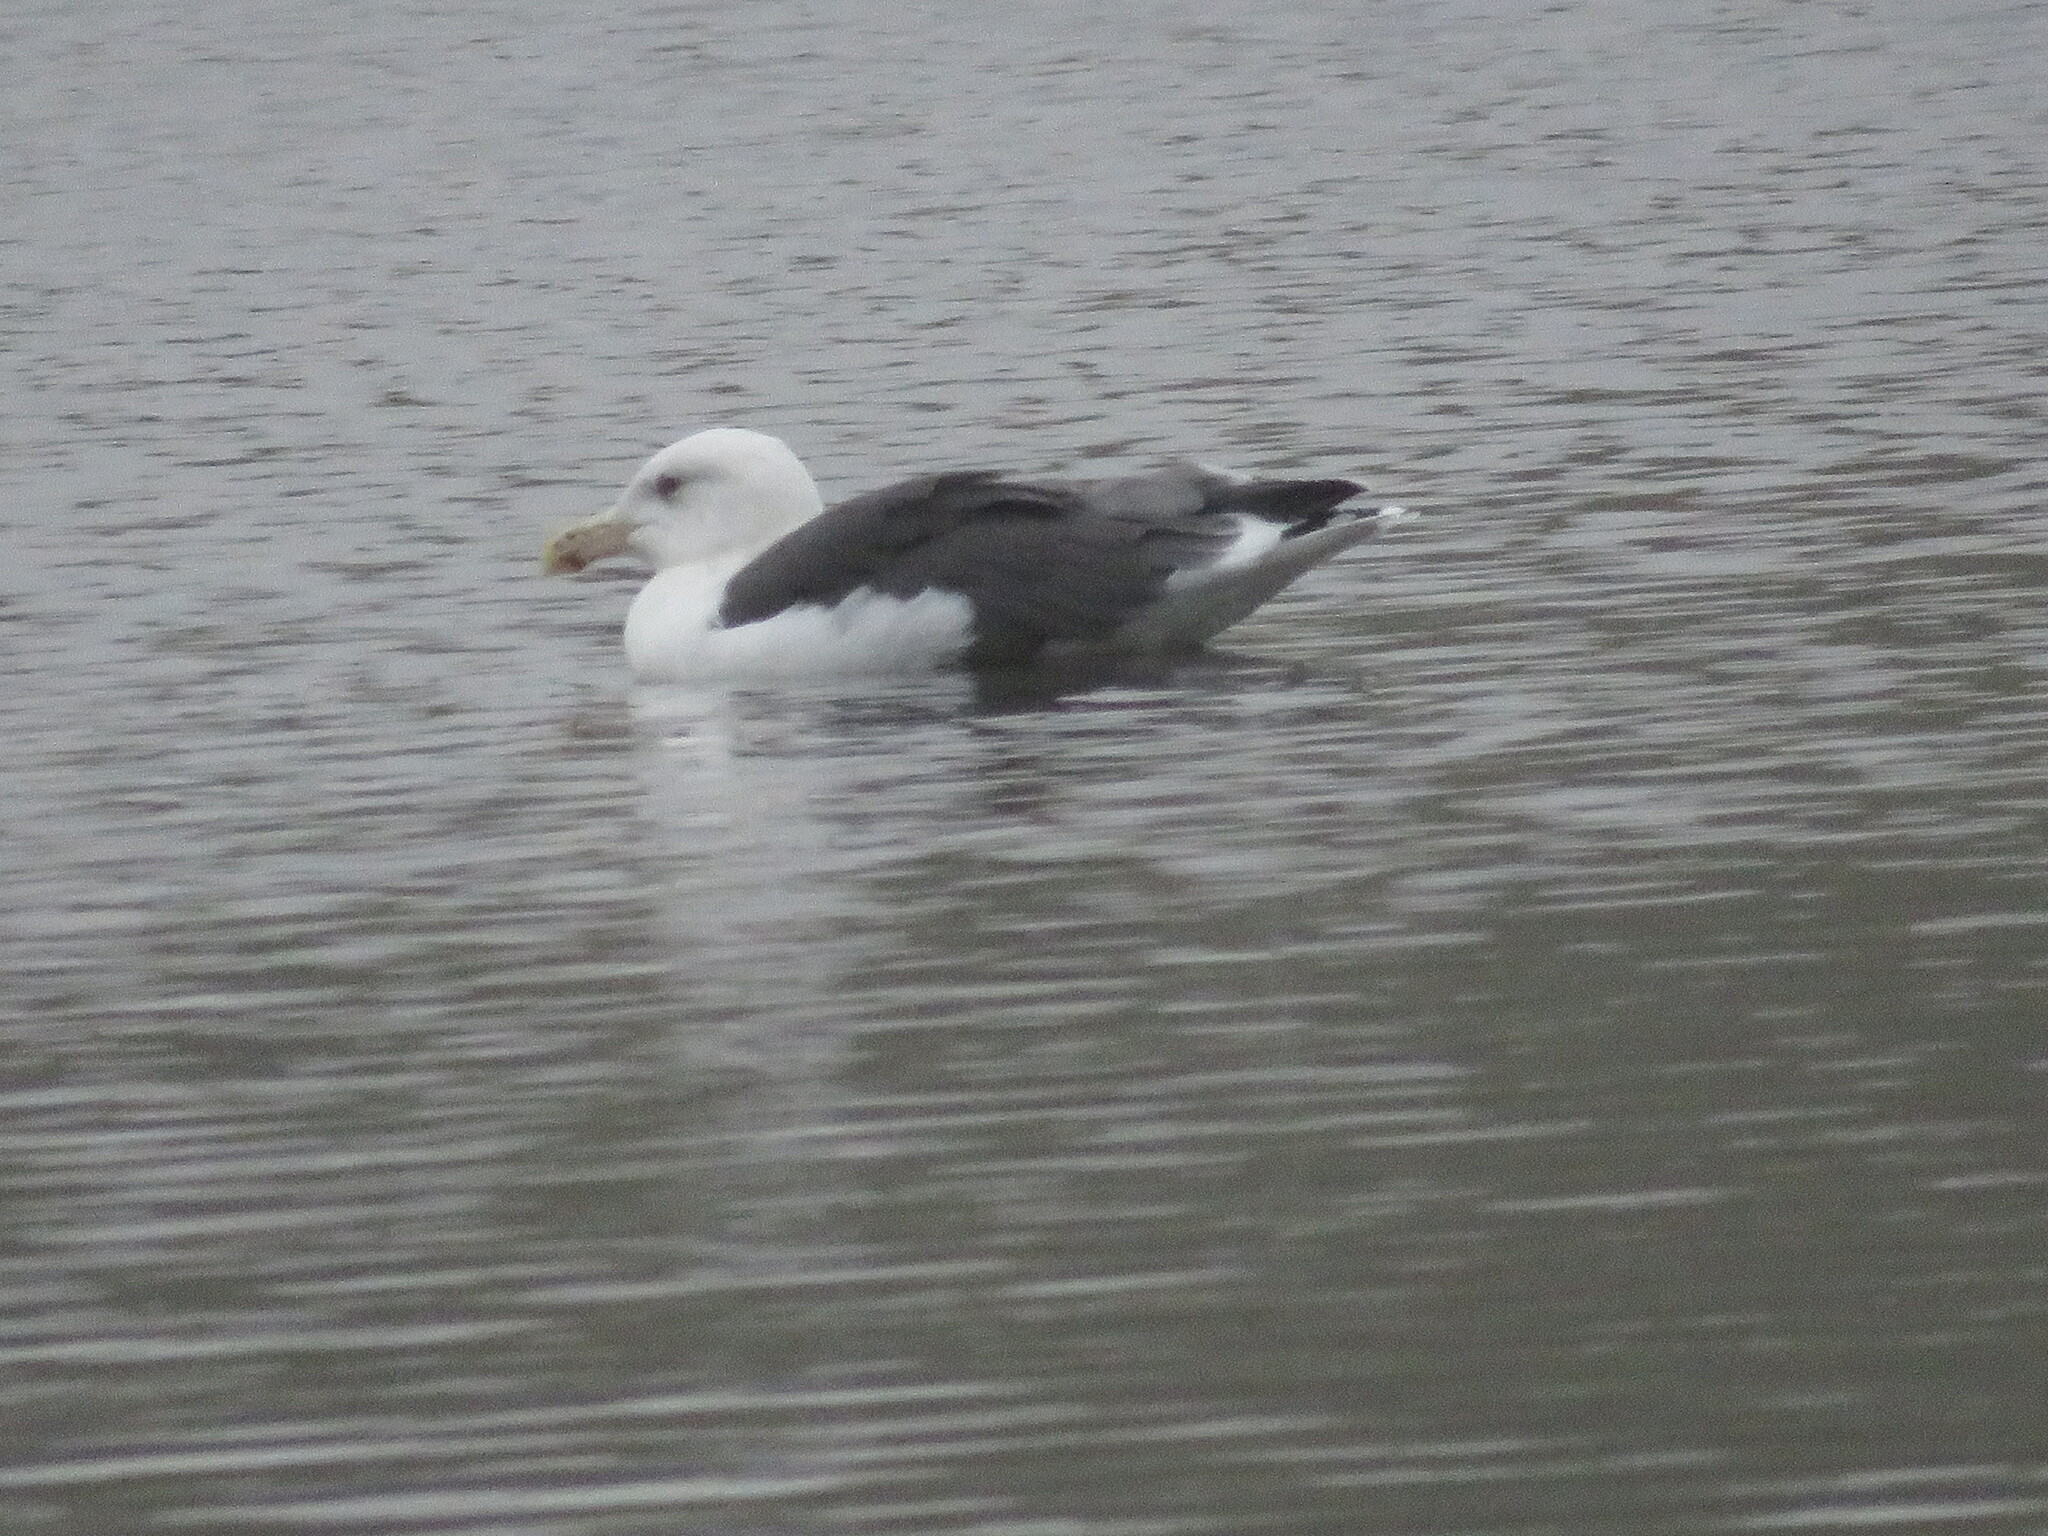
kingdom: Animalia
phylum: Chordata
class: Aves
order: Charadriiformes
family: Laridae
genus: Larus
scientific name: Larus fuscus
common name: Lesser black-backed gull
